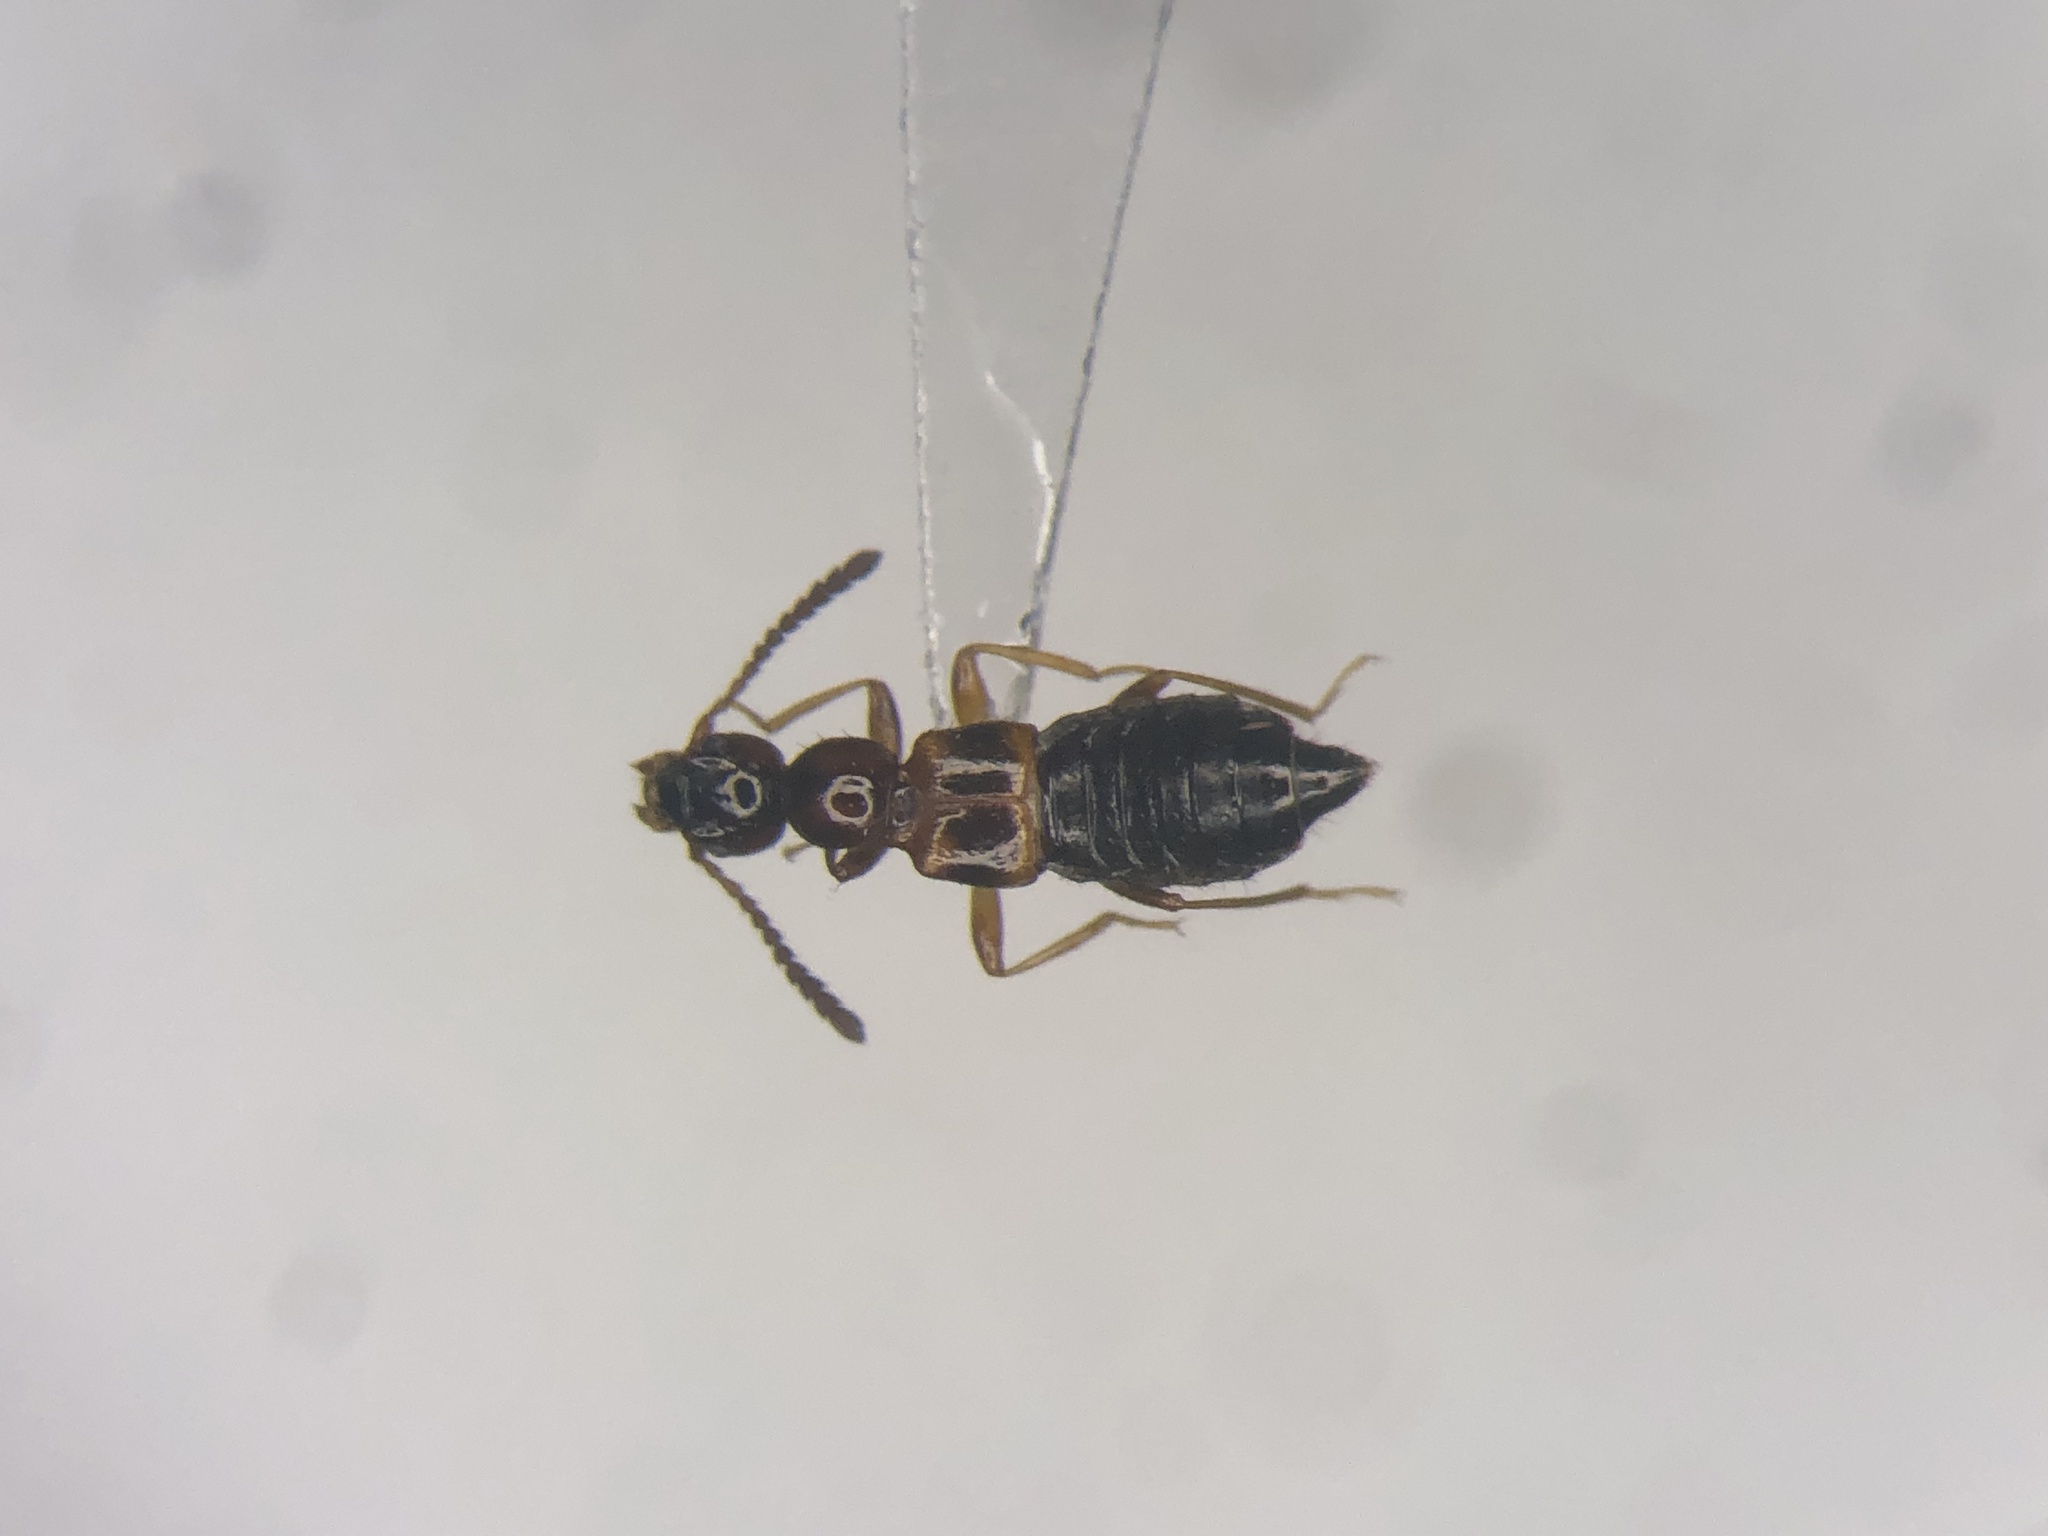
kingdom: Animalia
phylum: Arthropoda
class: Insecta
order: Coleoptera
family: Staphylinidae
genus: Apocellus
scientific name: Apocellus sphaericollis
